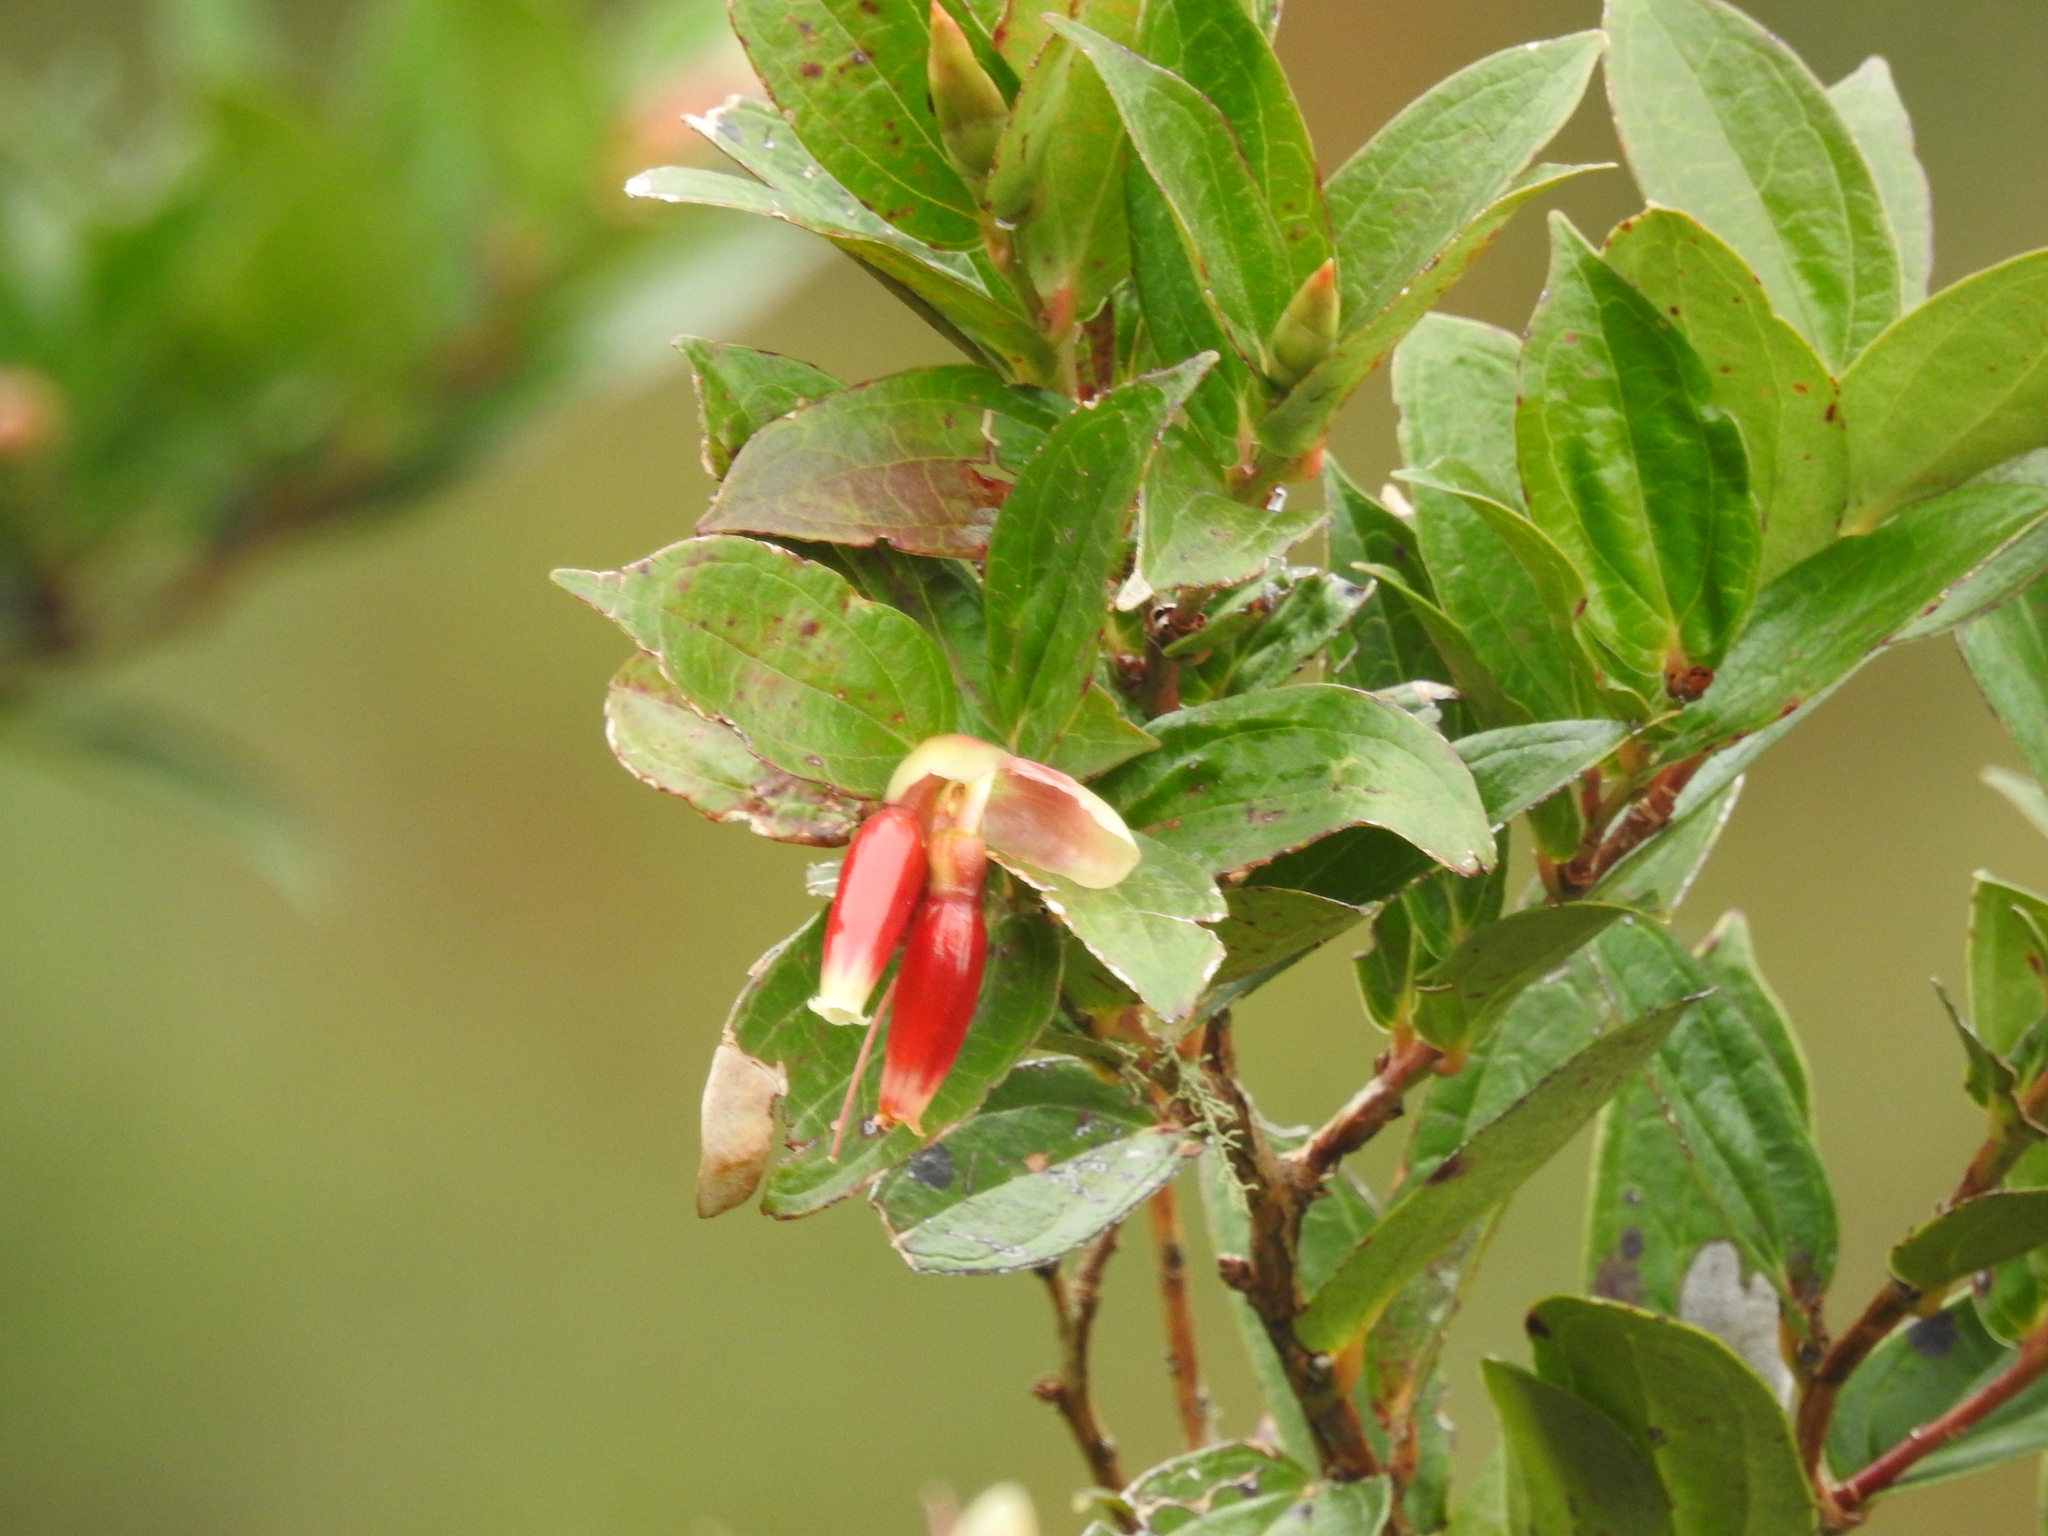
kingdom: Plantae
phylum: Tracheophyta
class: Magnoliopsida
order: Ericales
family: Ericaceae
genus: Cavendishia
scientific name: Cavendishia bracteata
